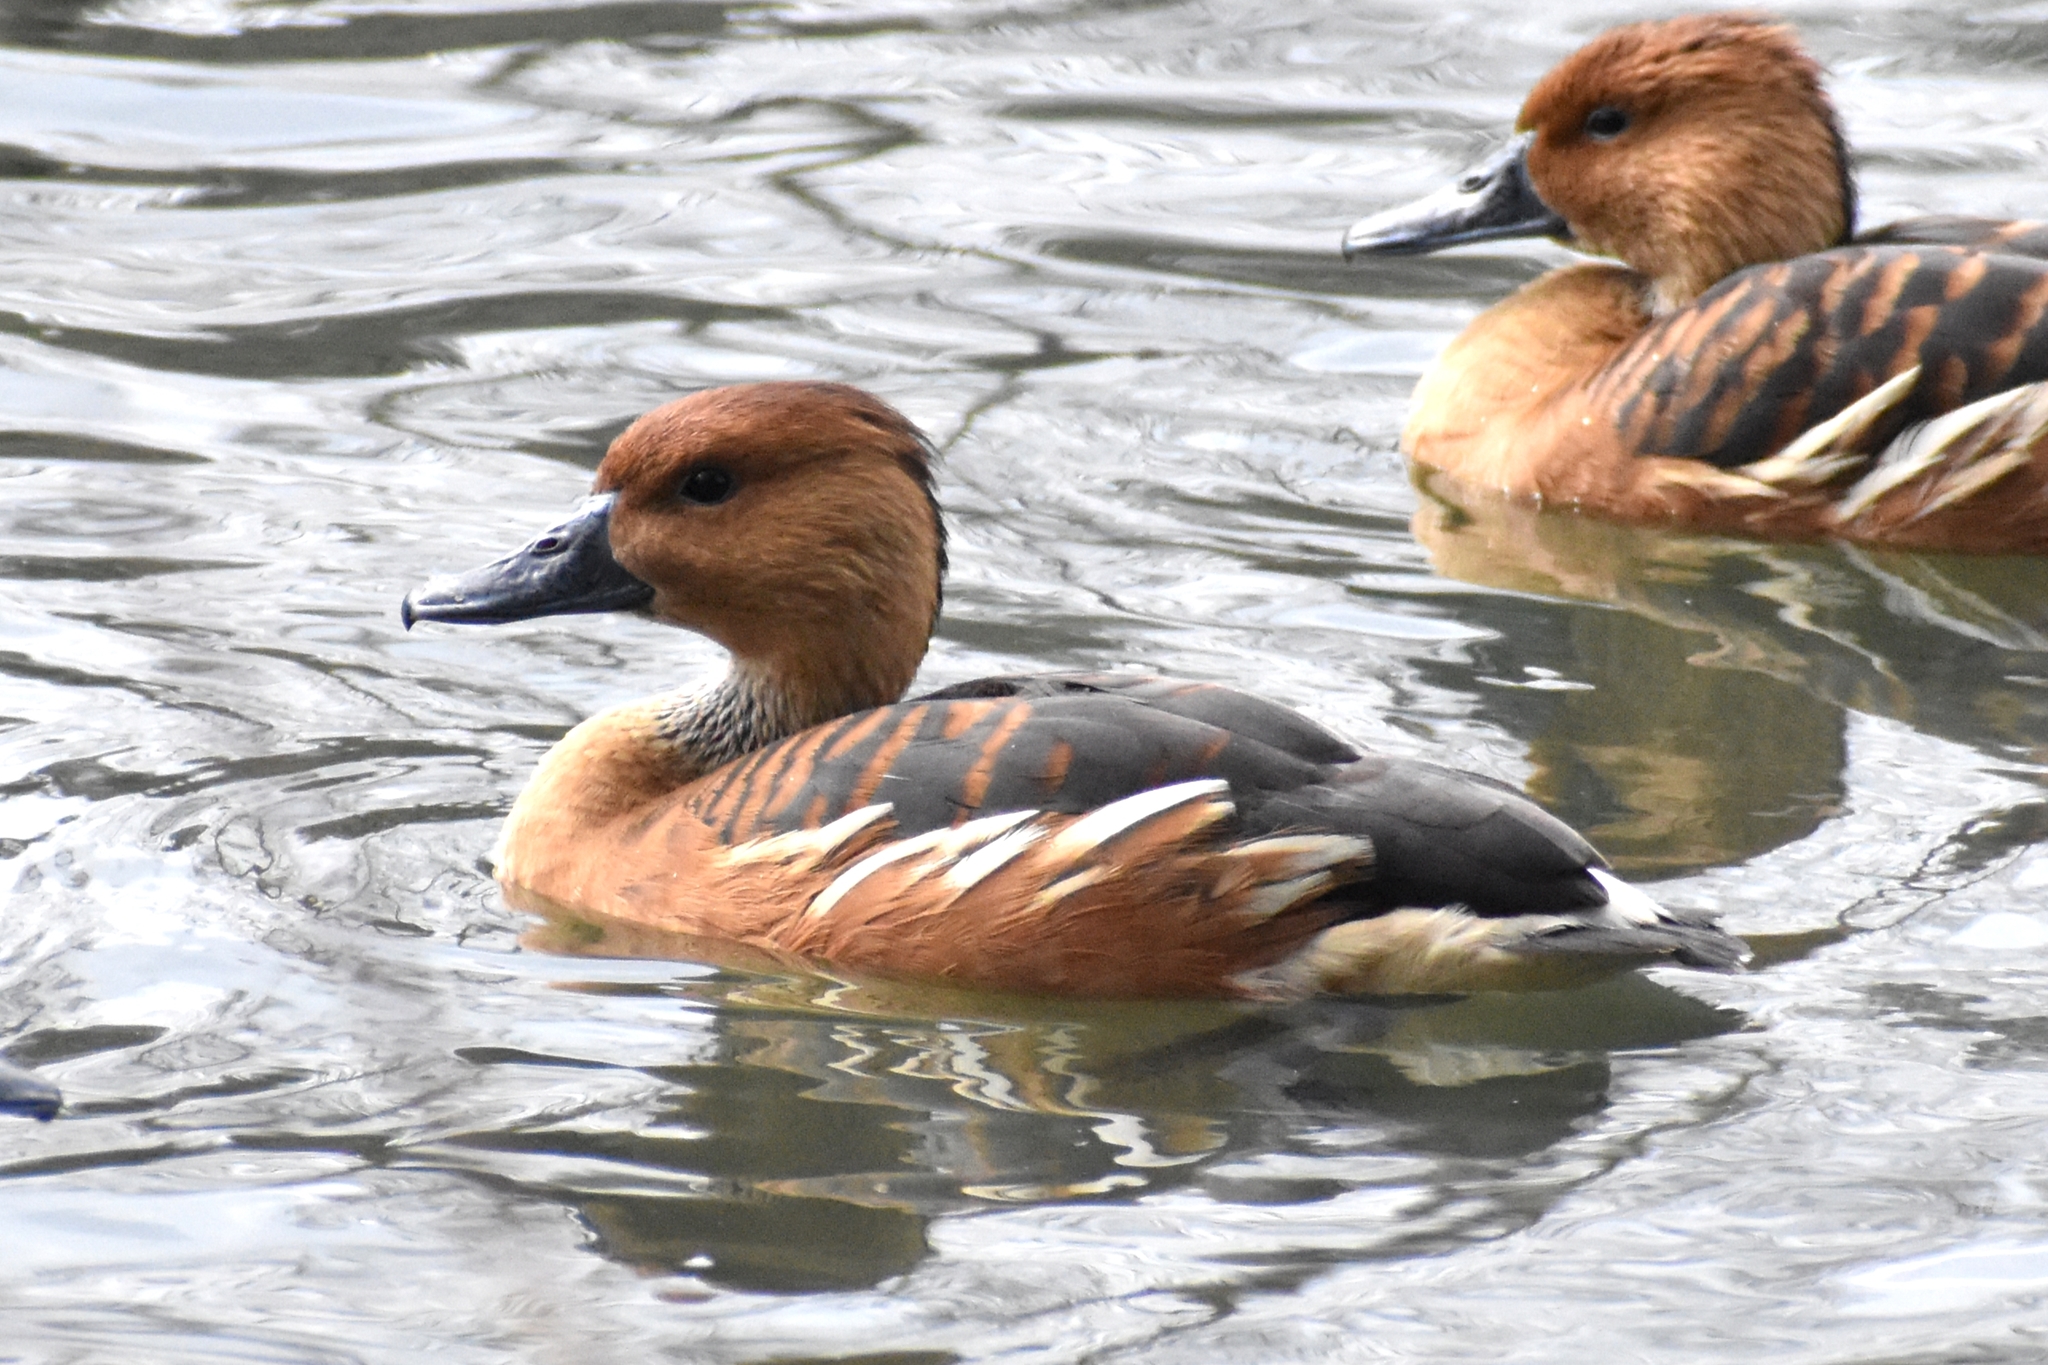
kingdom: Animalia
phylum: Chordata
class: Aves
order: Anseriformes
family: Anatidae
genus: Dendrocygna
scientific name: Dendrocygna bicolor
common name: Fulvous whistling duck
